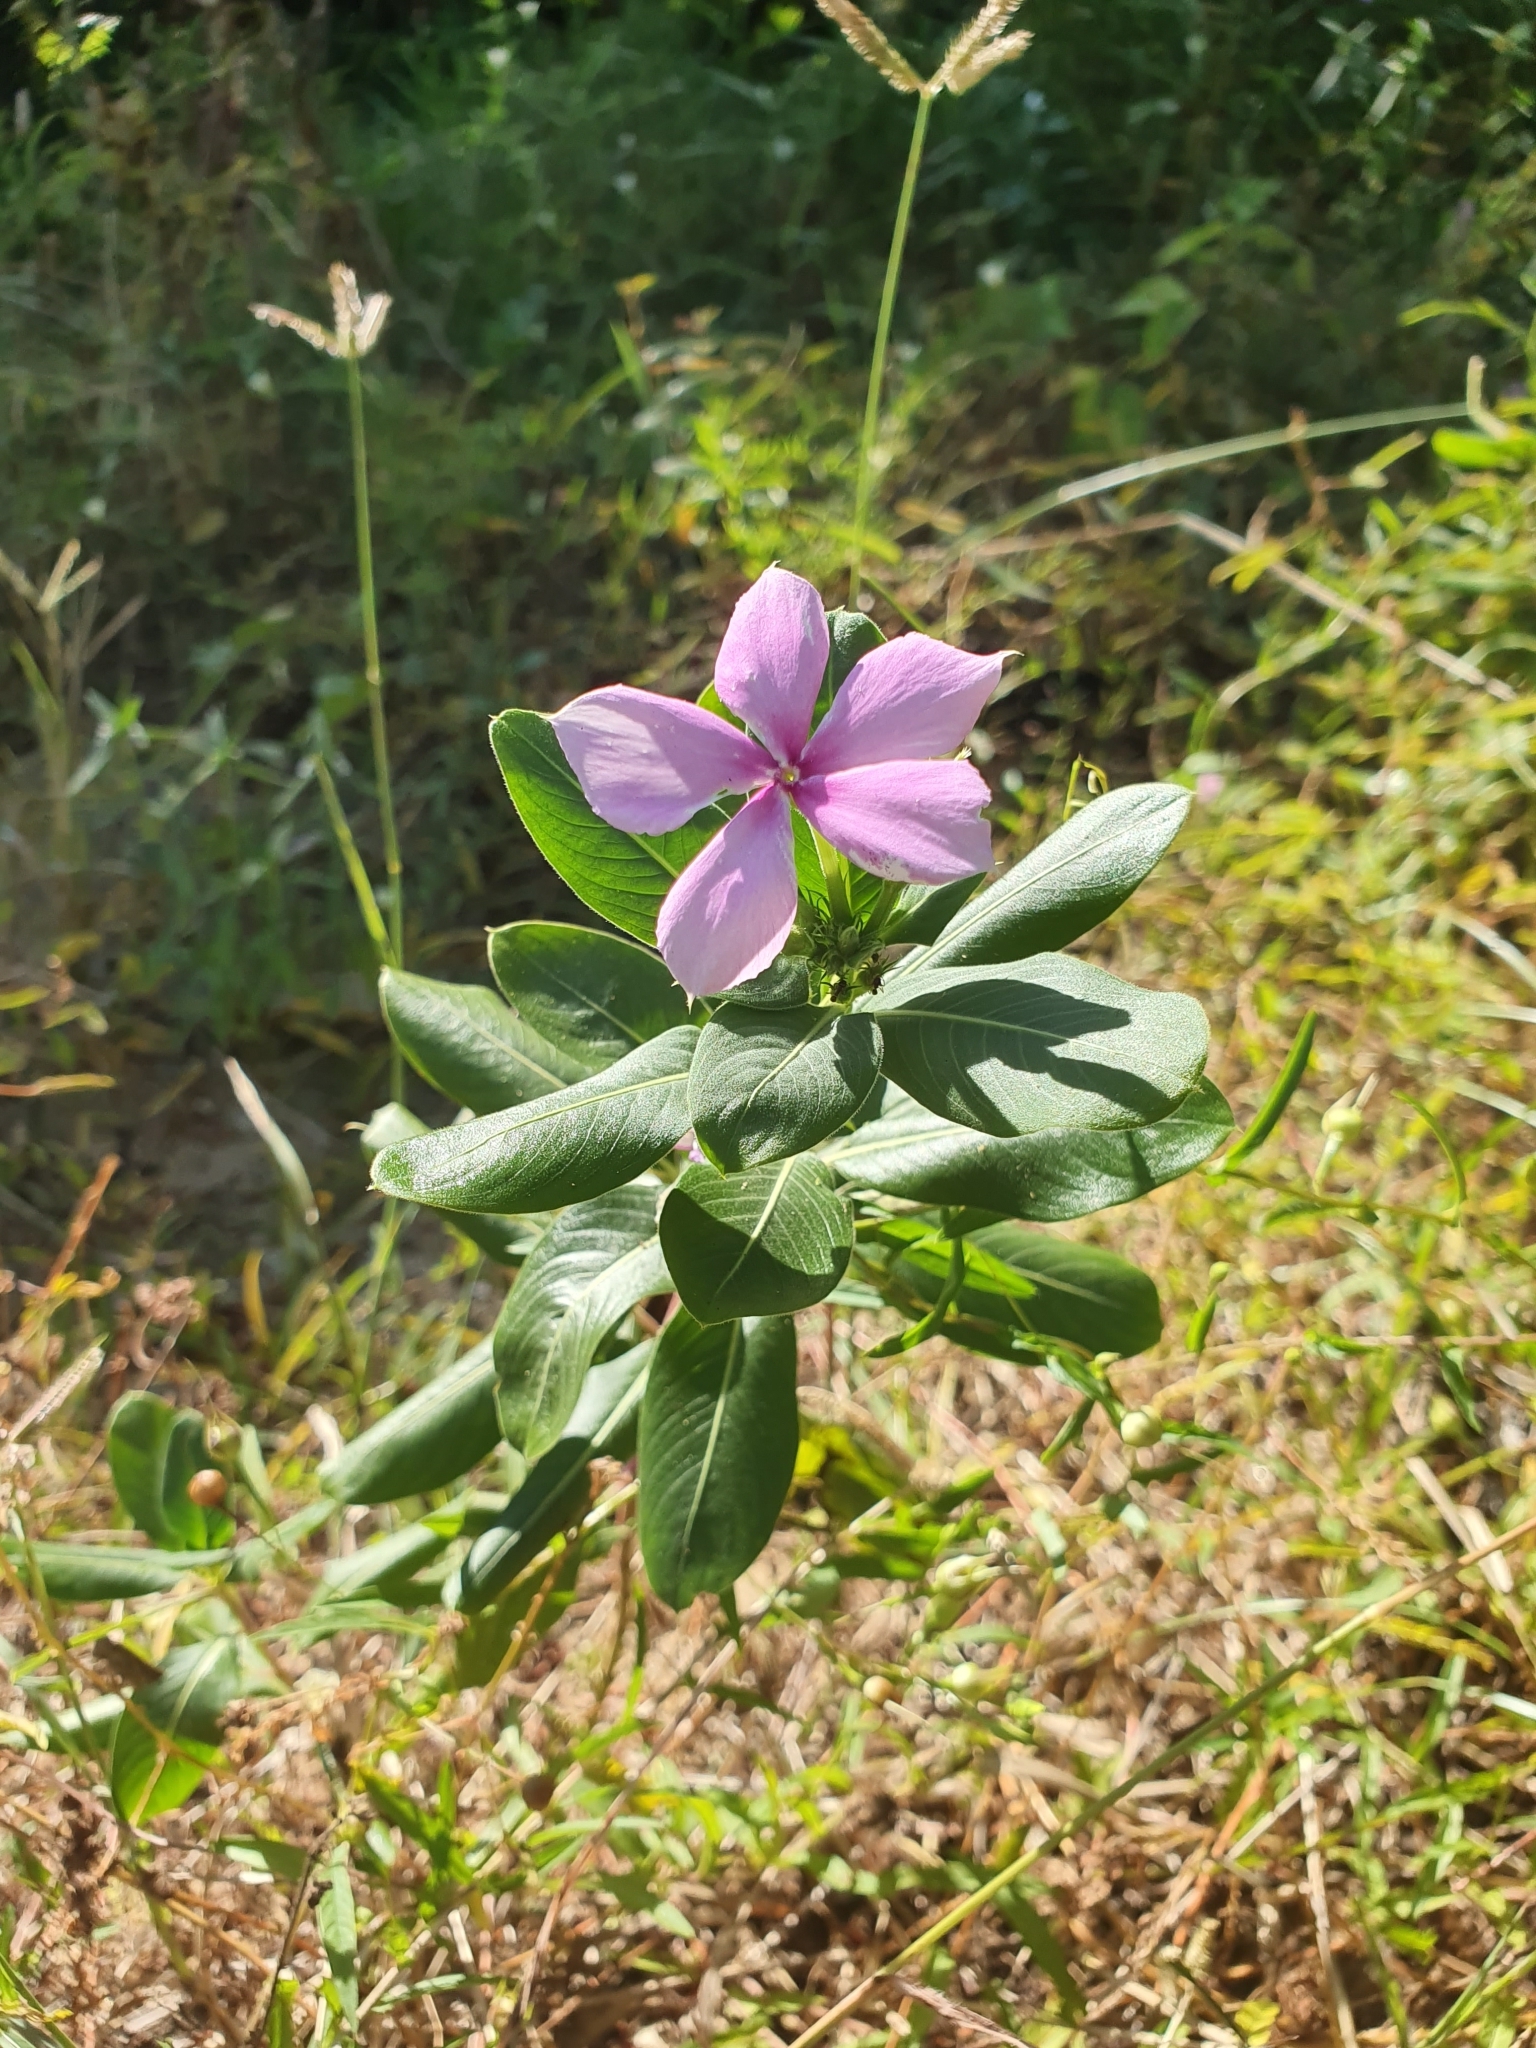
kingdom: Plantae
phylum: Tracheophyta
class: Magnoliopsida
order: Gentianales
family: Apocynaceae
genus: Catharanthus
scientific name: Catharanthus roseus
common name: Madagascar periwinkle
